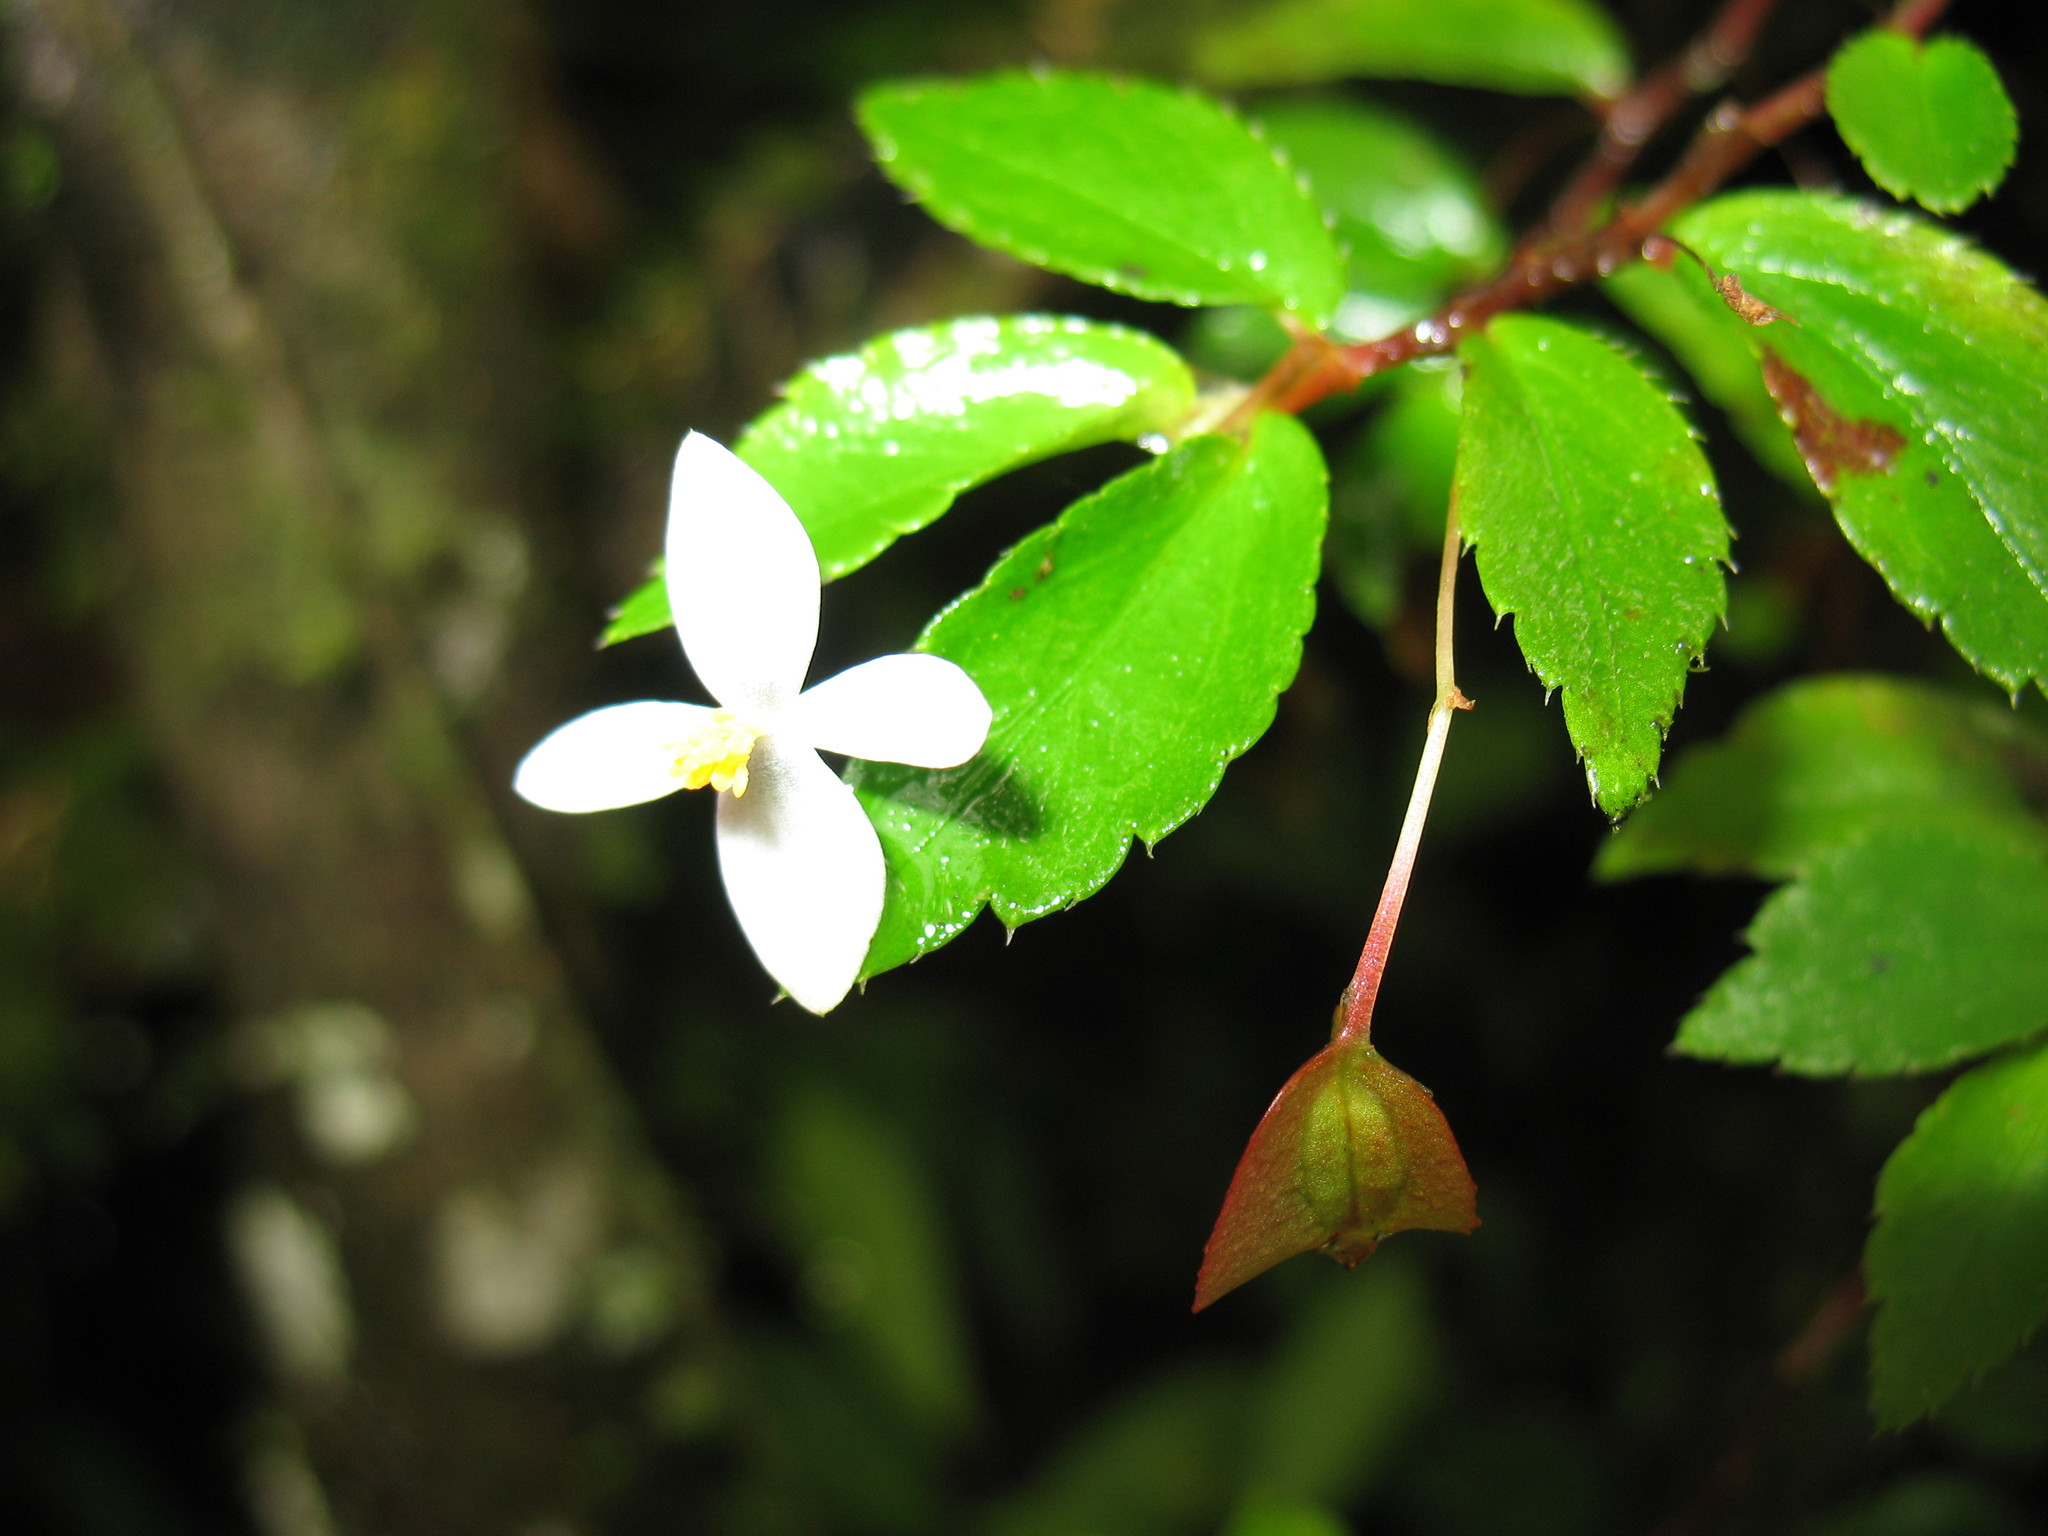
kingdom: Plantae
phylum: Tracheophyta
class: Magnoliopsida
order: Cucurbitales
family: Begoniaceae
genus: Begonia
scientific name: Begonia foliosa
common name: Fern begonia
